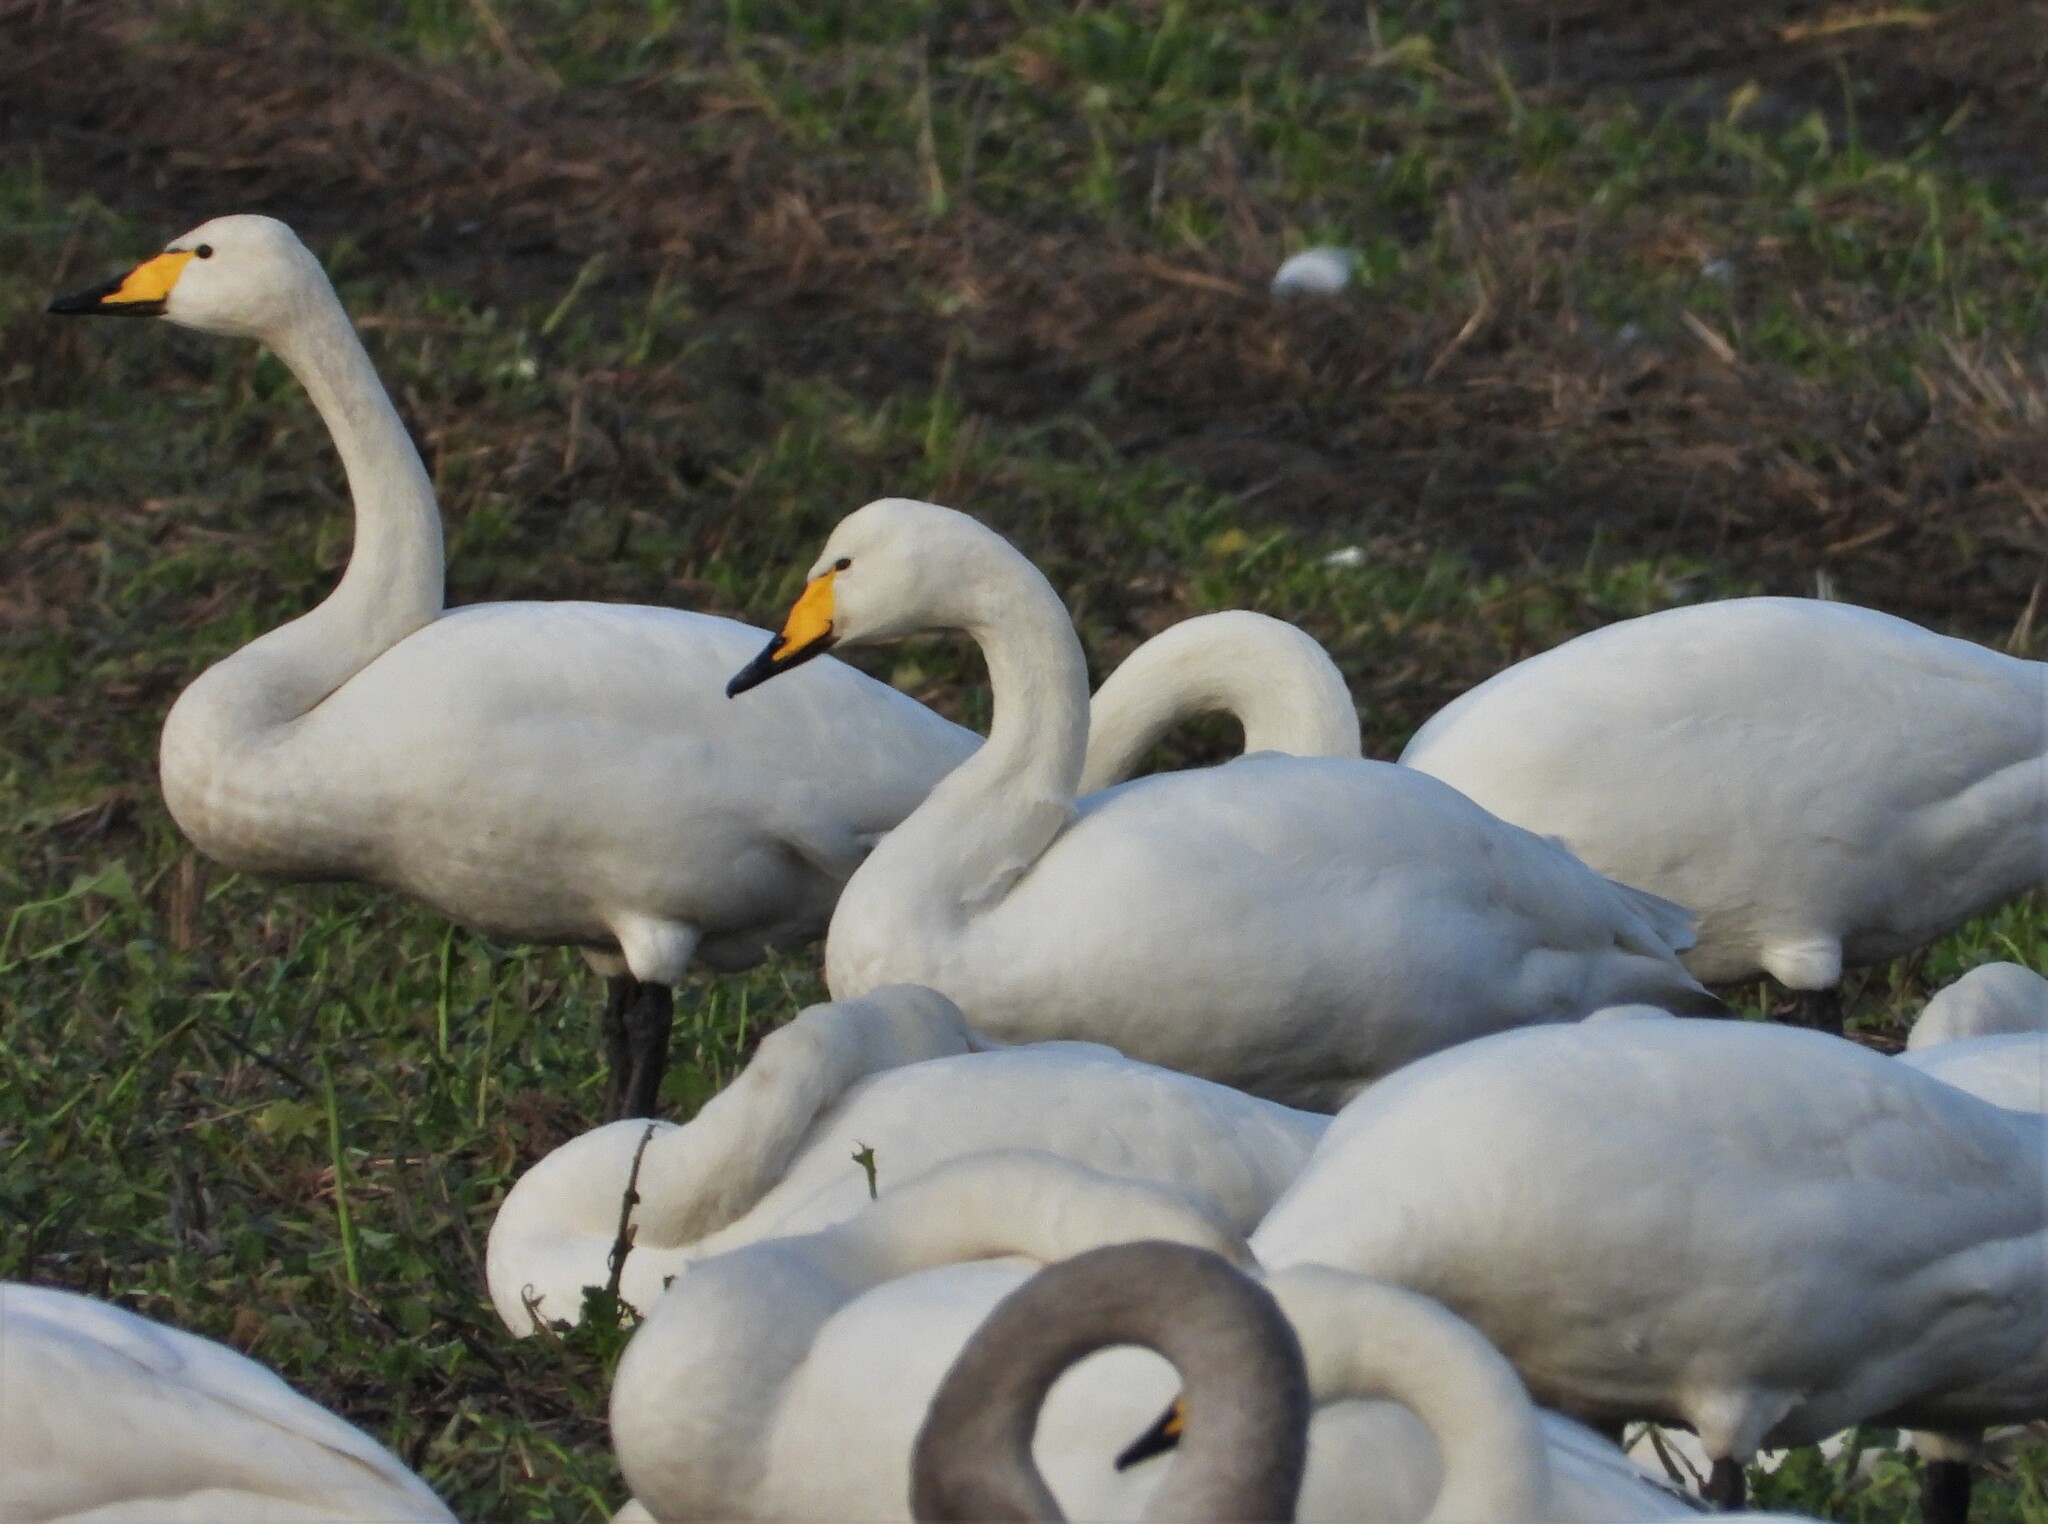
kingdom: Animalia
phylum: Chordata
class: Aves
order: Anseriformes
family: Anatidae
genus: Cygnus
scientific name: Cygnus cygnus
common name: Whooper swan
